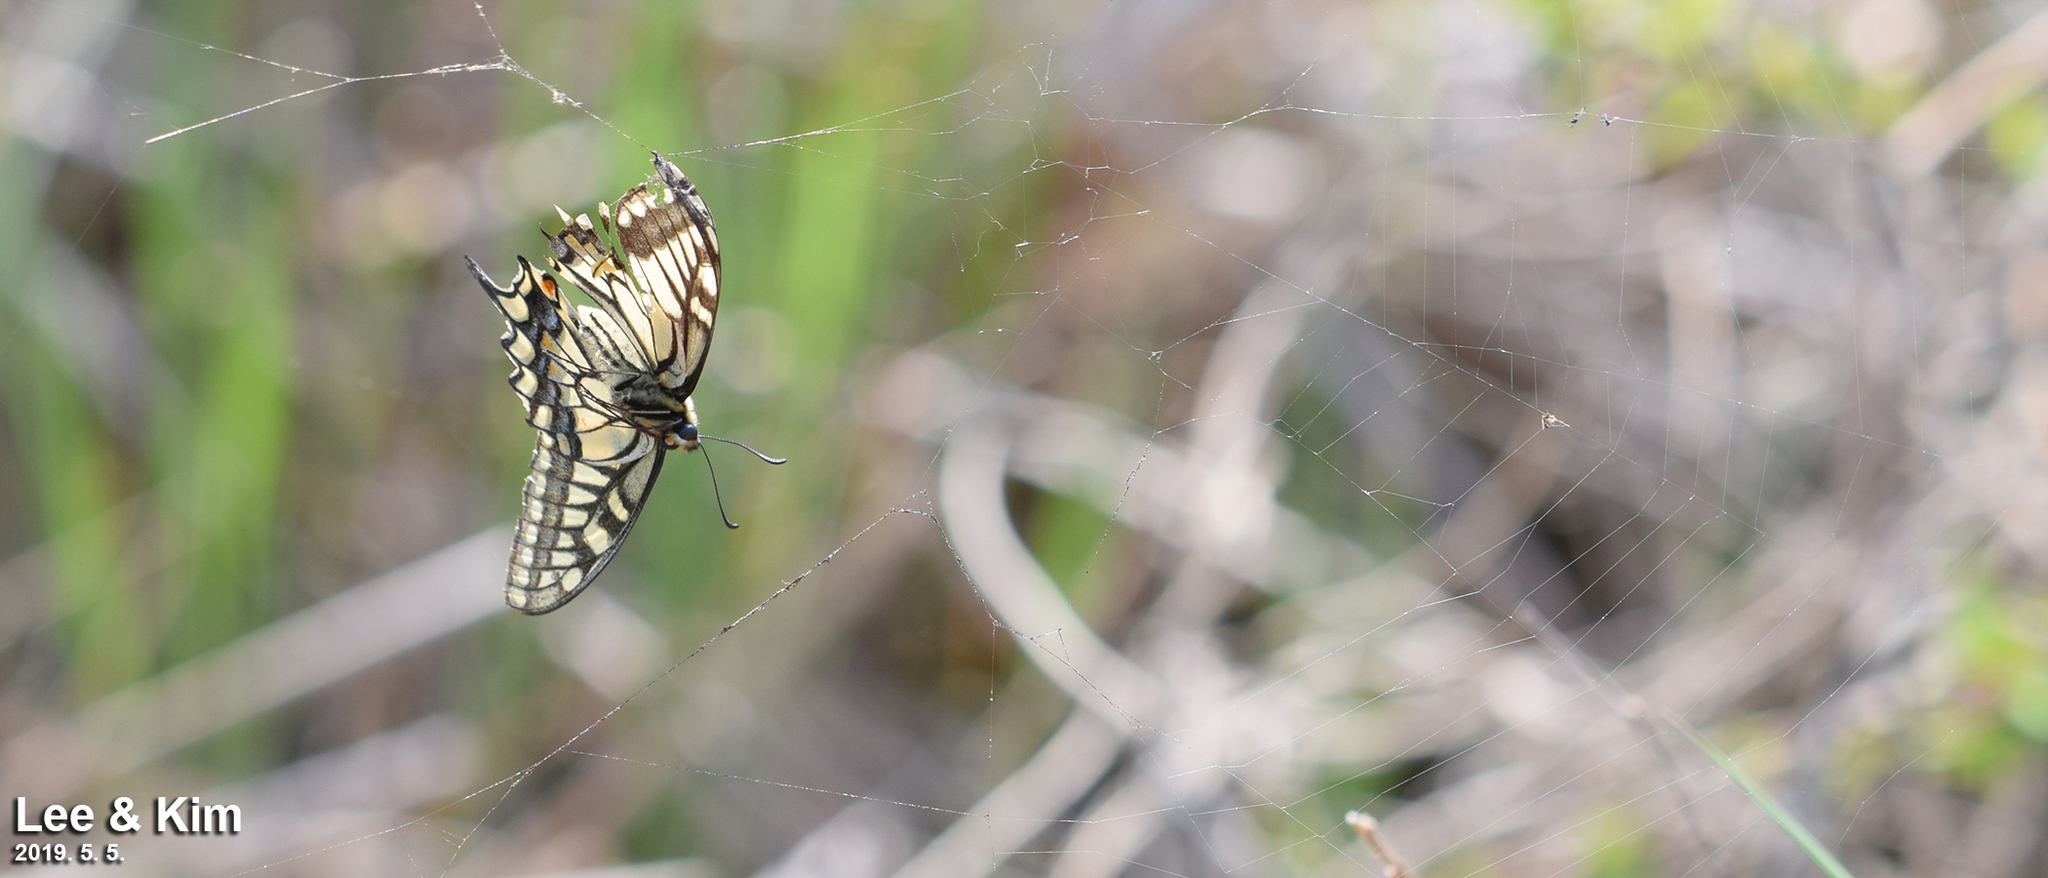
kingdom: Animalia
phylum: Arthropoda
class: Insecta
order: Lepidoptera
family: Papilionidae
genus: Papilio
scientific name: Papilio machaon
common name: Swallowtail
